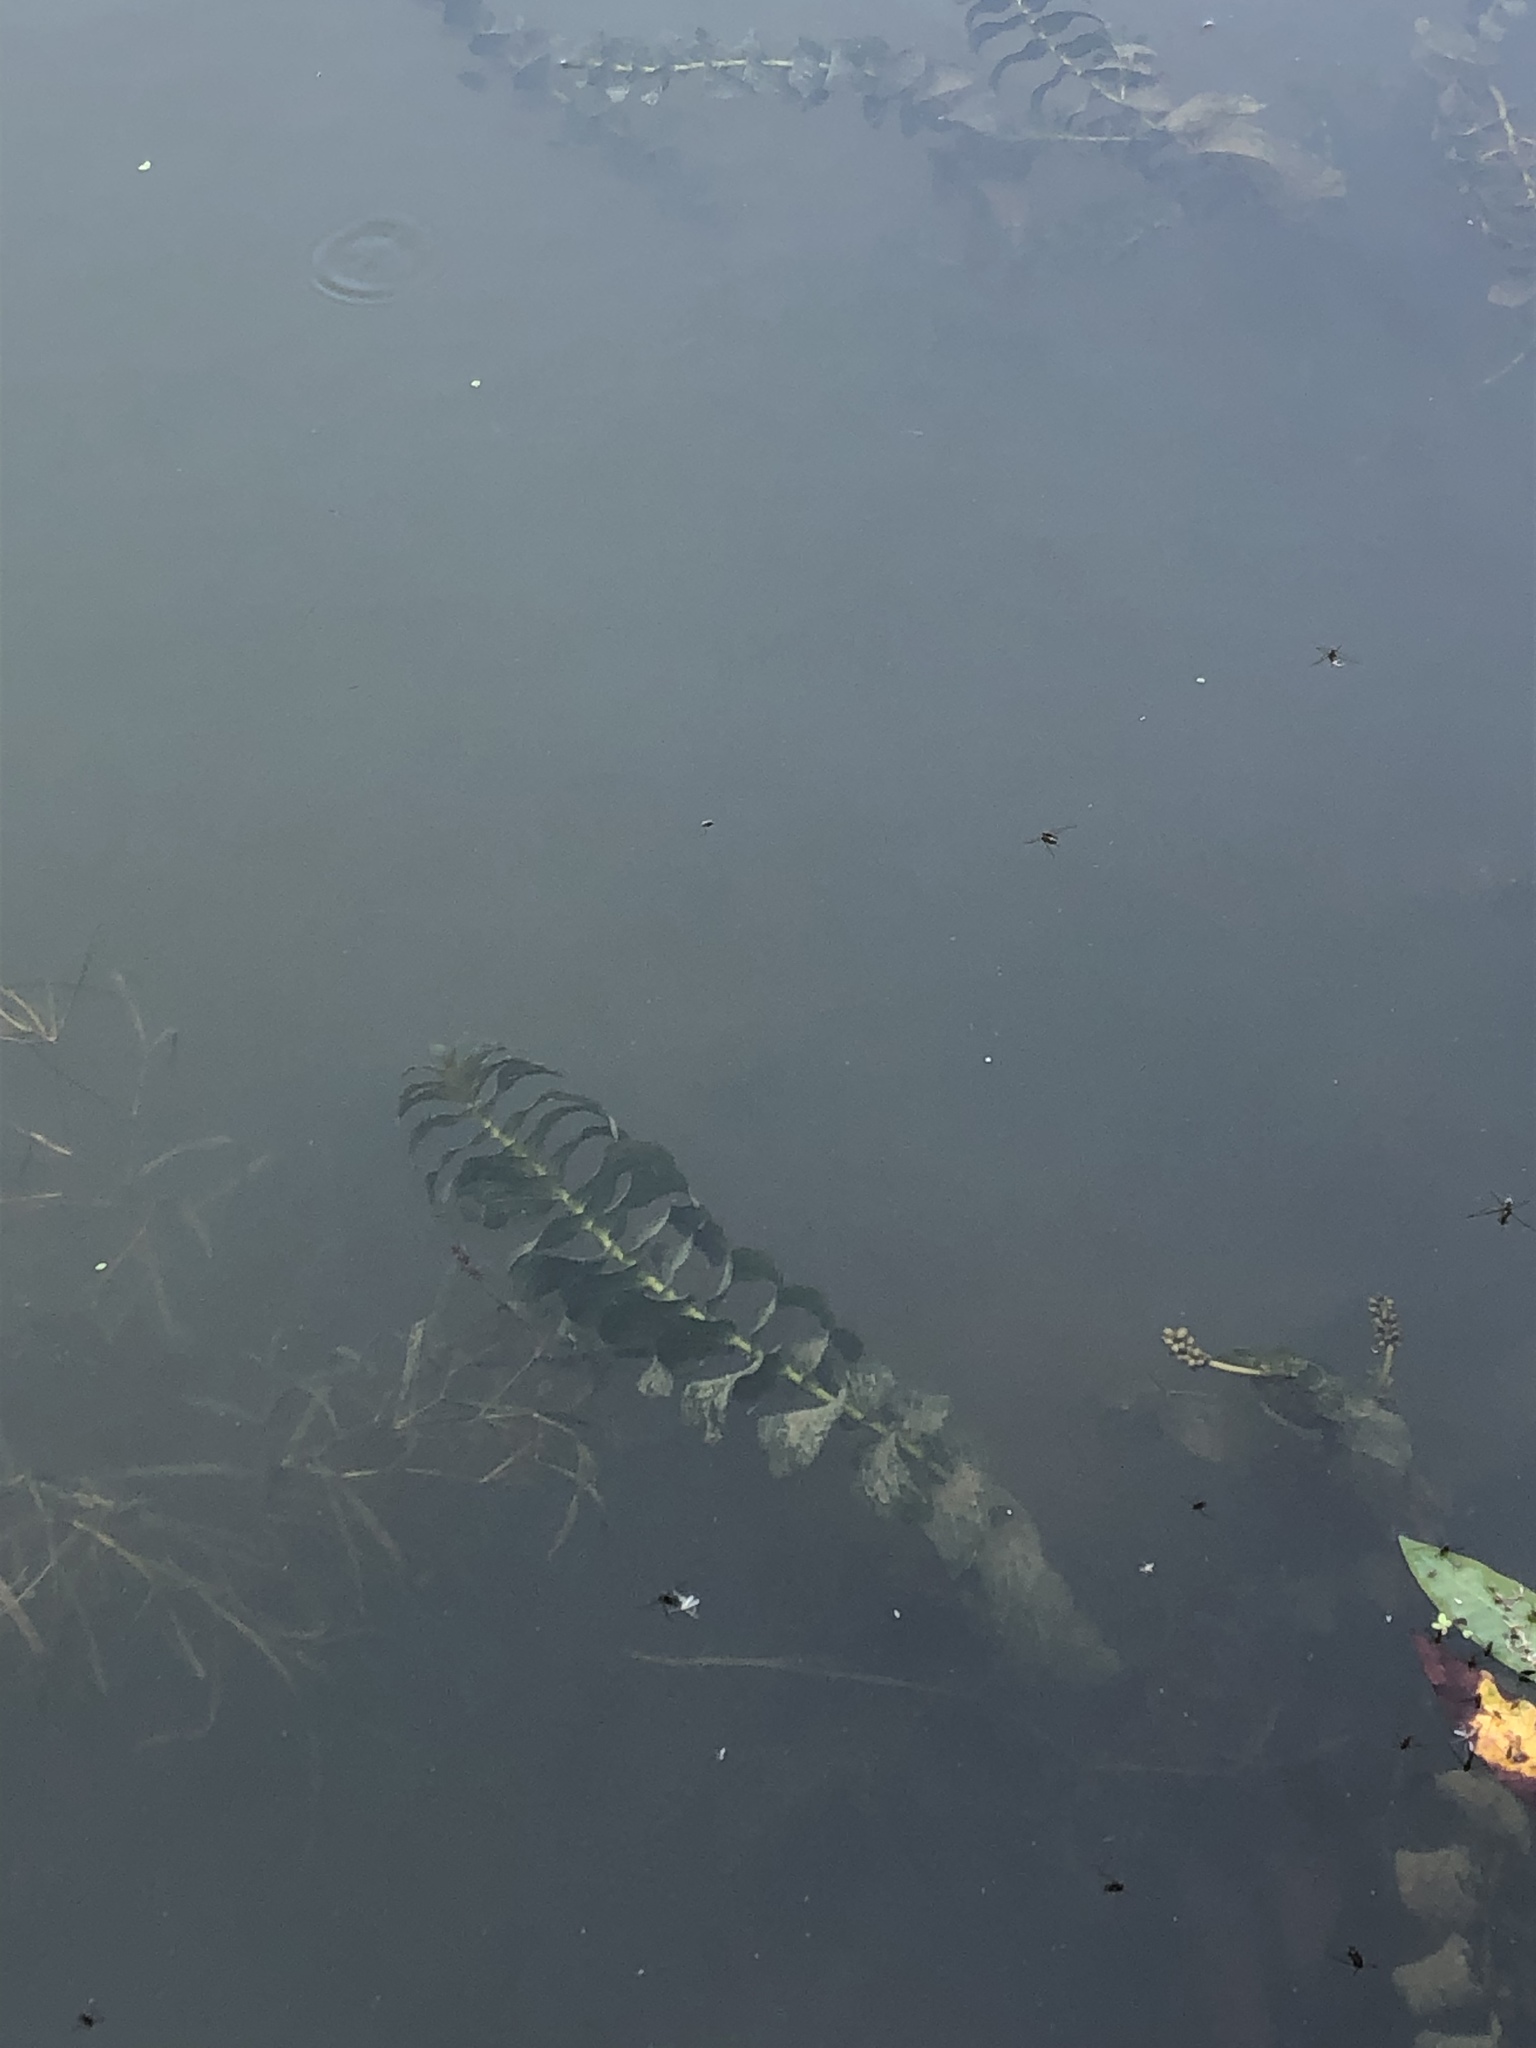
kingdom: Plantae
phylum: Tracheophyta
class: Liliopsida
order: Alismatales
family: Potamogetonaceae
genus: Potamogeton
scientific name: Potamogeton perfoliatus
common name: Perfoliate pondweed
